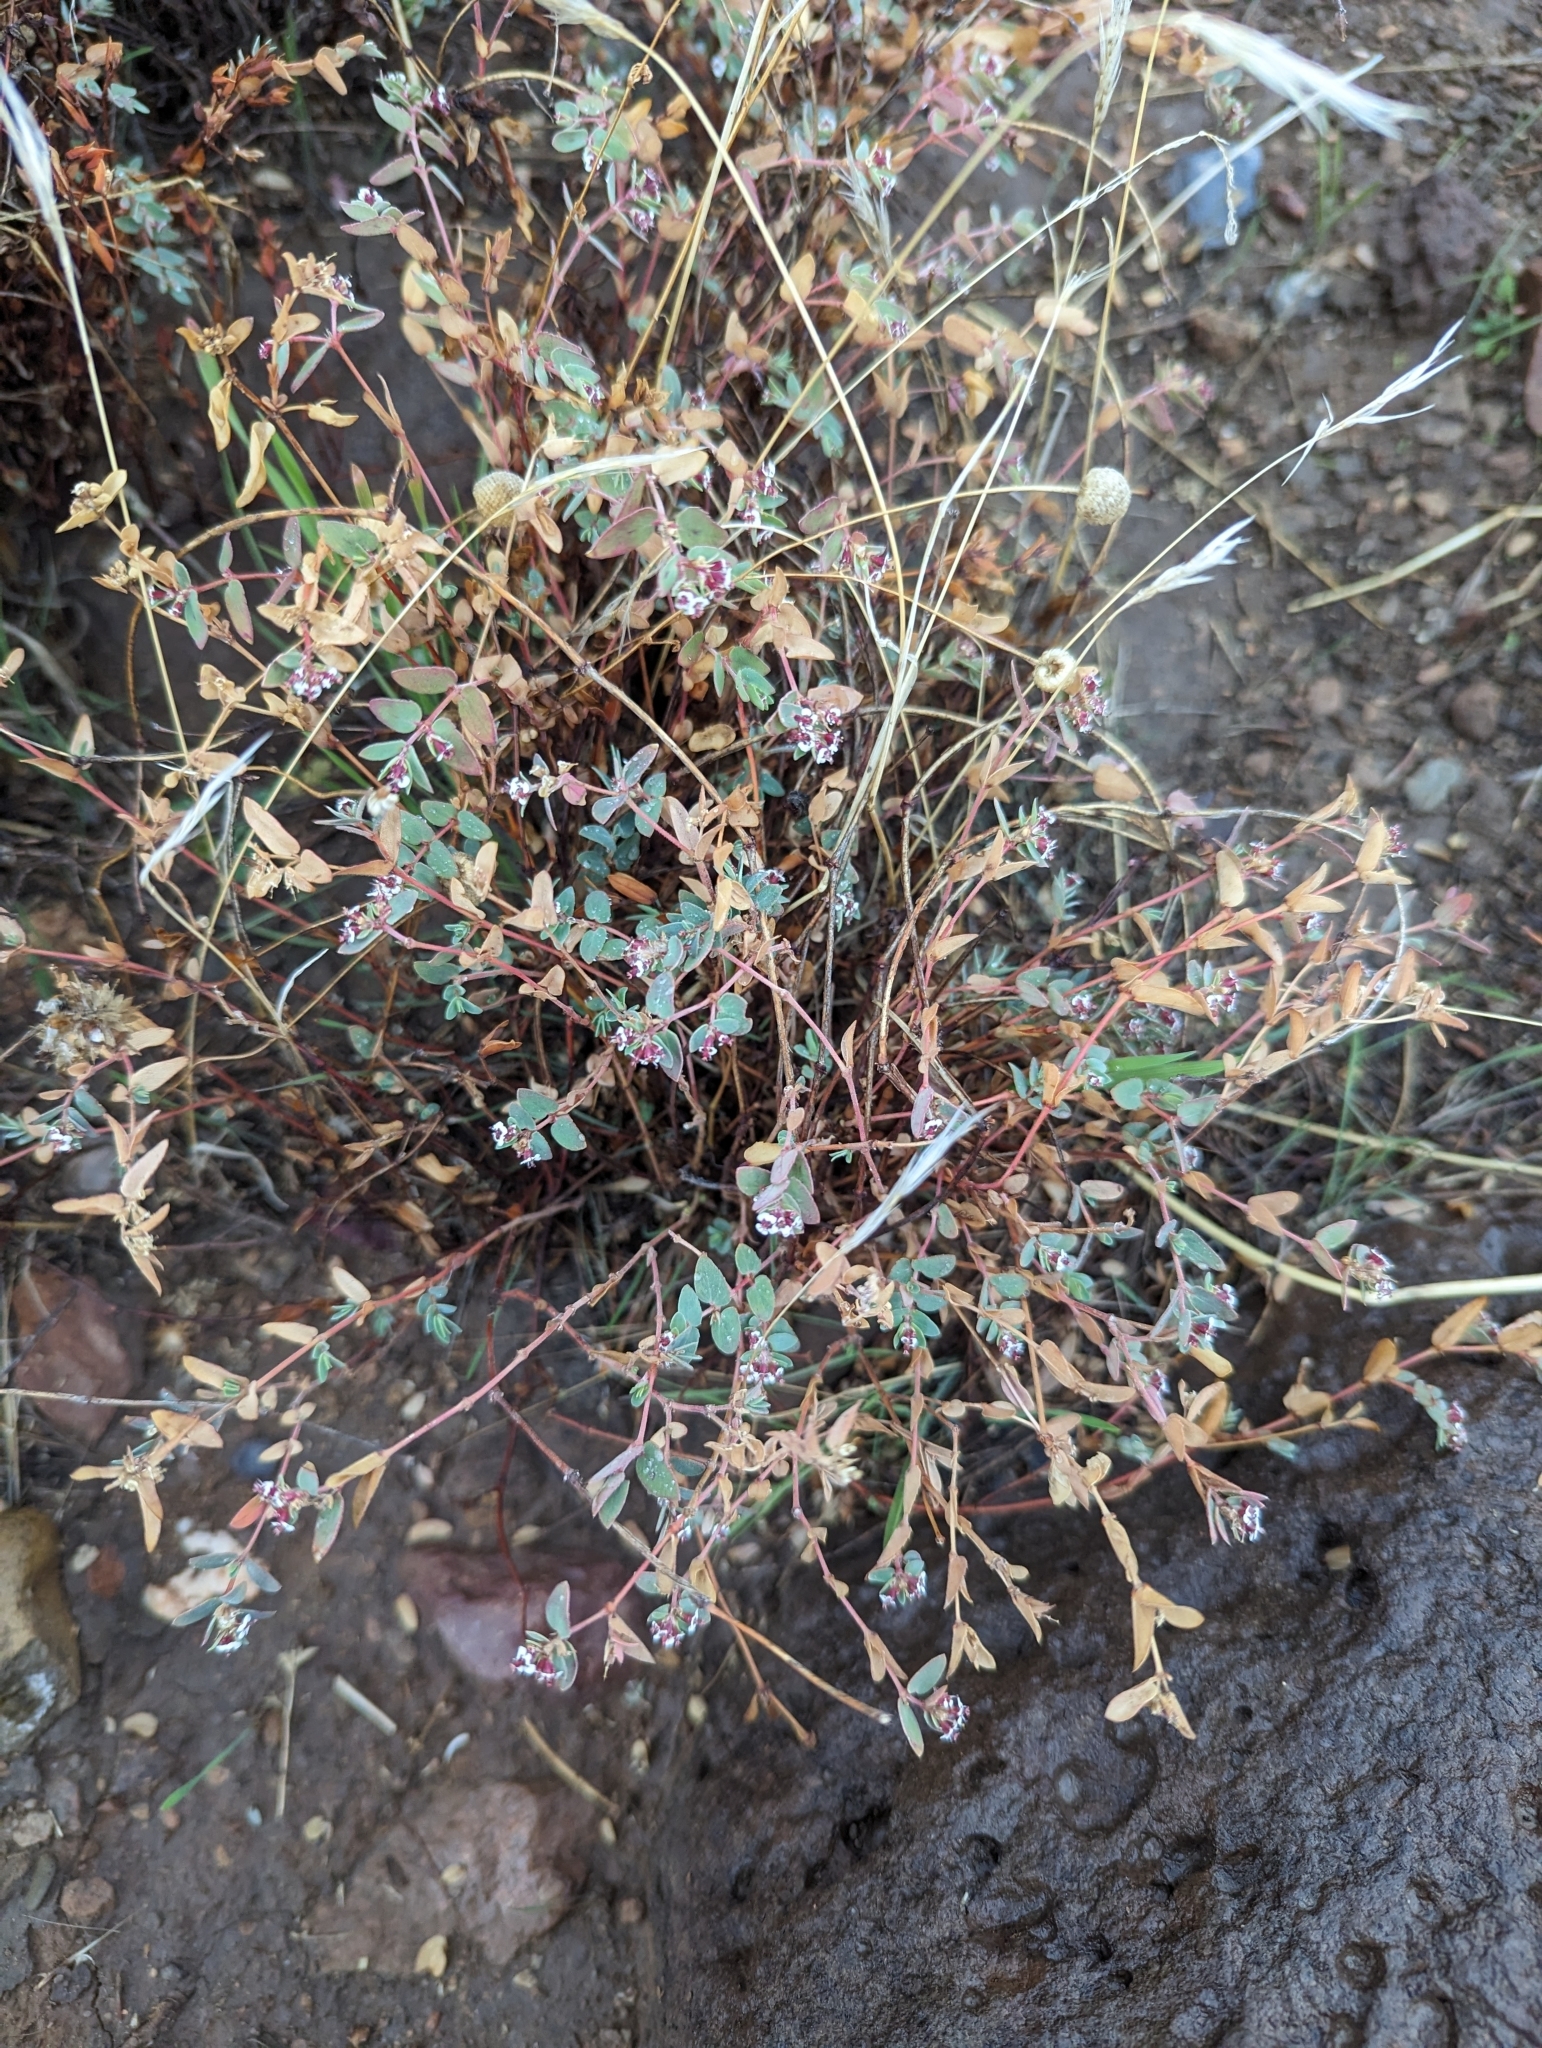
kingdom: Plantae
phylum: Tracheophyta
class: Magnoliopsida
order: Malpighiales
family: Euphorbiaceae
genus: Euphorbia
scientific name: Euphorbia capitellata
